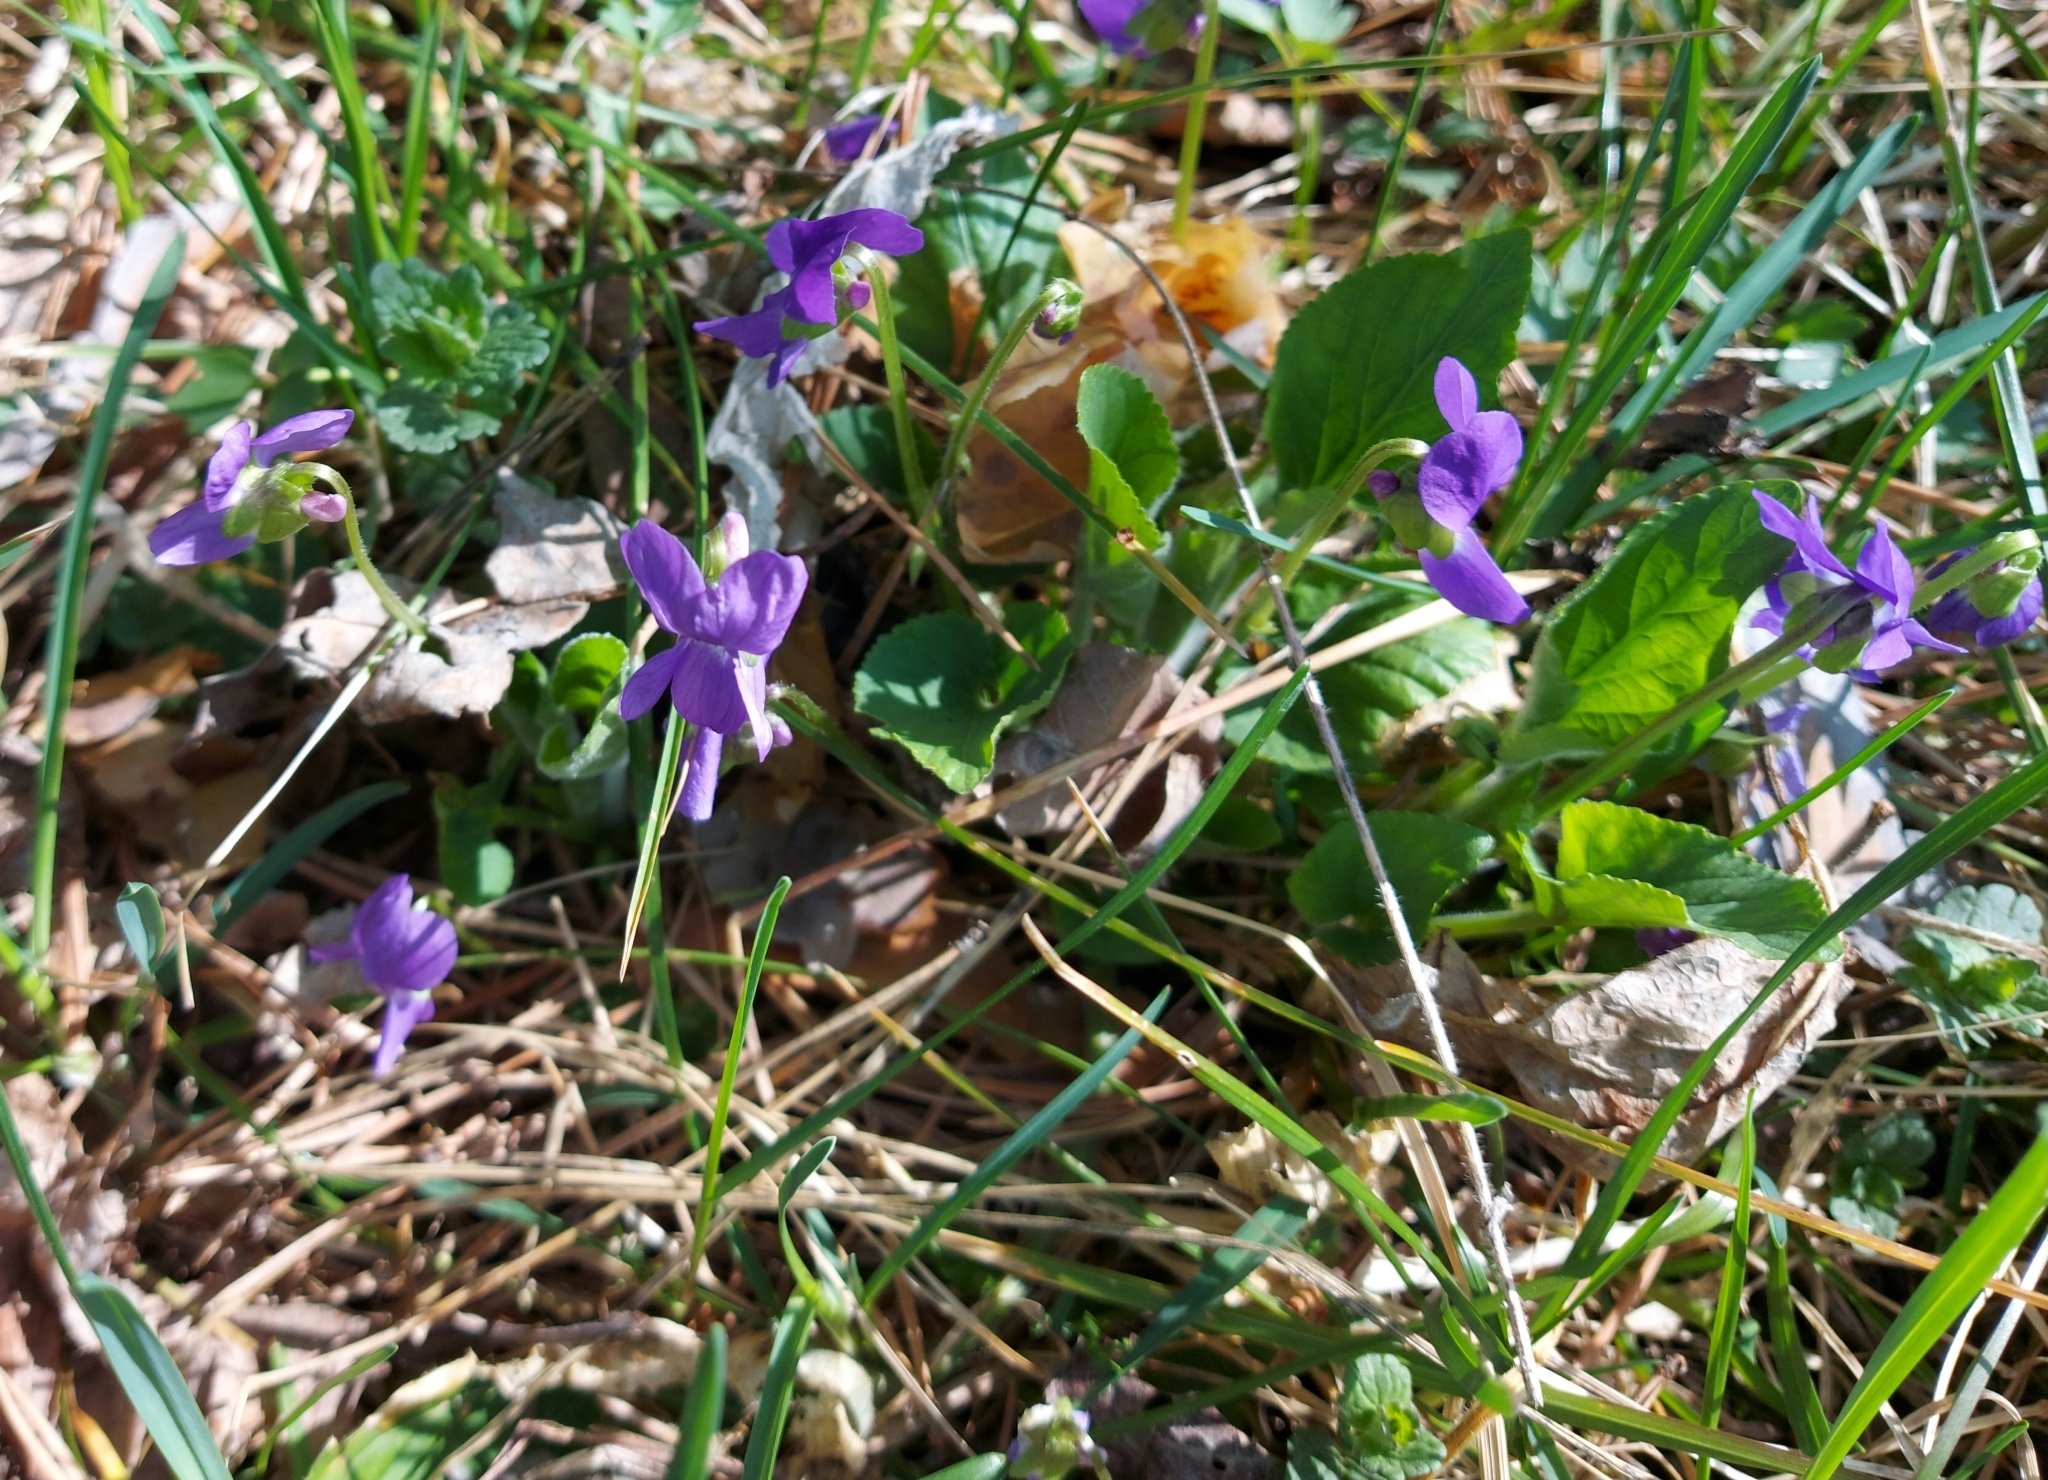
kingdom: Plantae
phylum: Tracheophyta
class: Magnoliopsida
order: Malpighiales
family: Violaceae
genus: Viola
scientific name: Viola hirta
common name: Hairy violet
